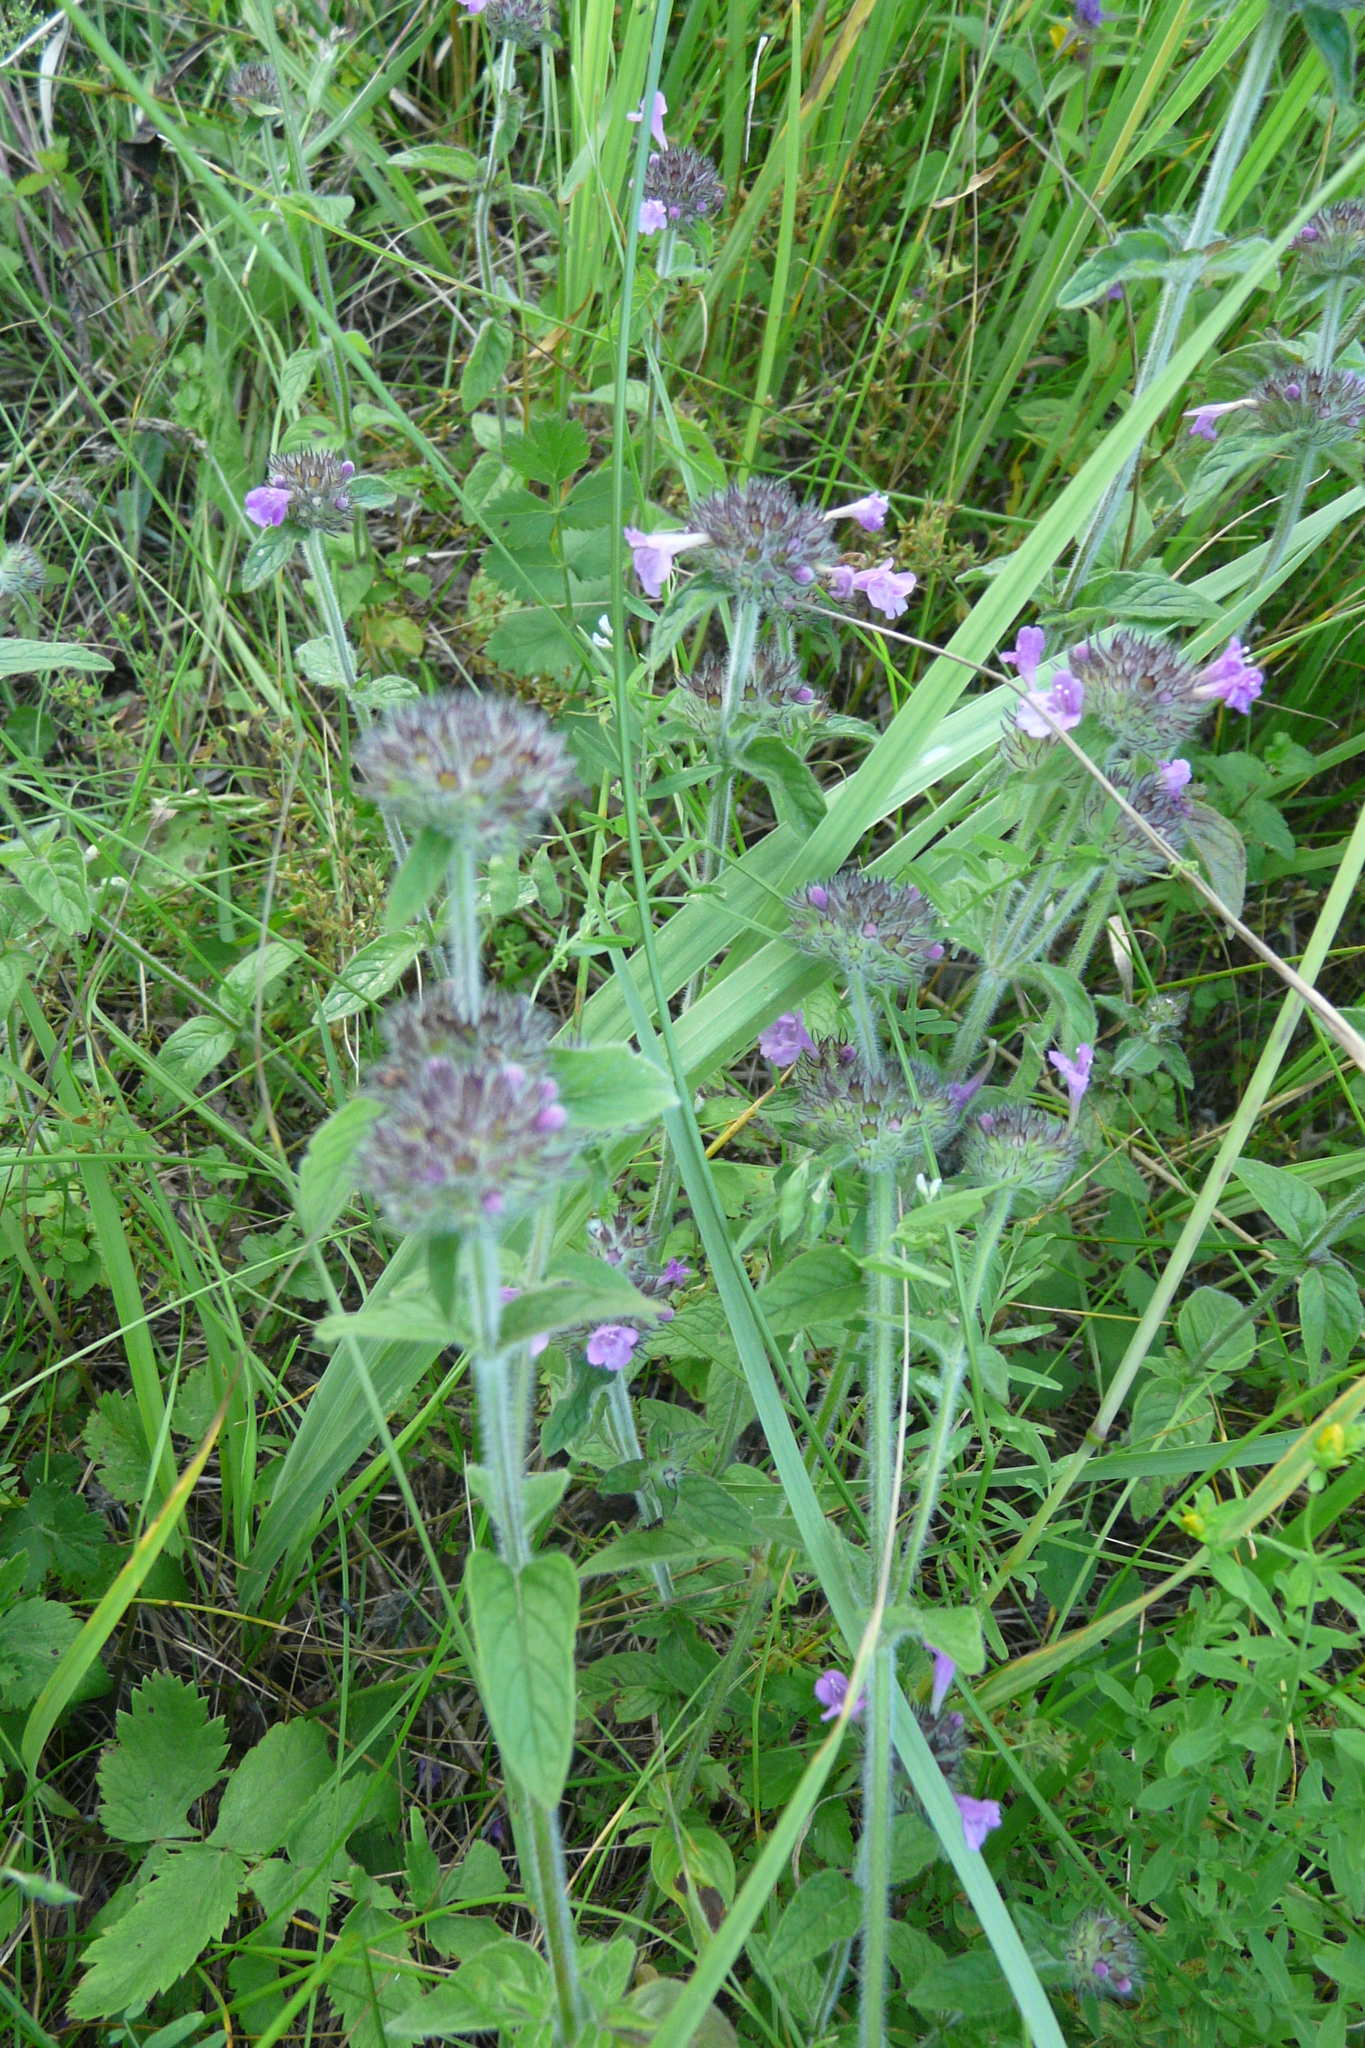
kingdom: Plantae
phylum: Tracheophyta
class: Magnoliopsida
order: Lamiales
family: Lamiaceae
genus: Clinopodium
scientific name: Clinopodium vulgare
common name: Wild basil
